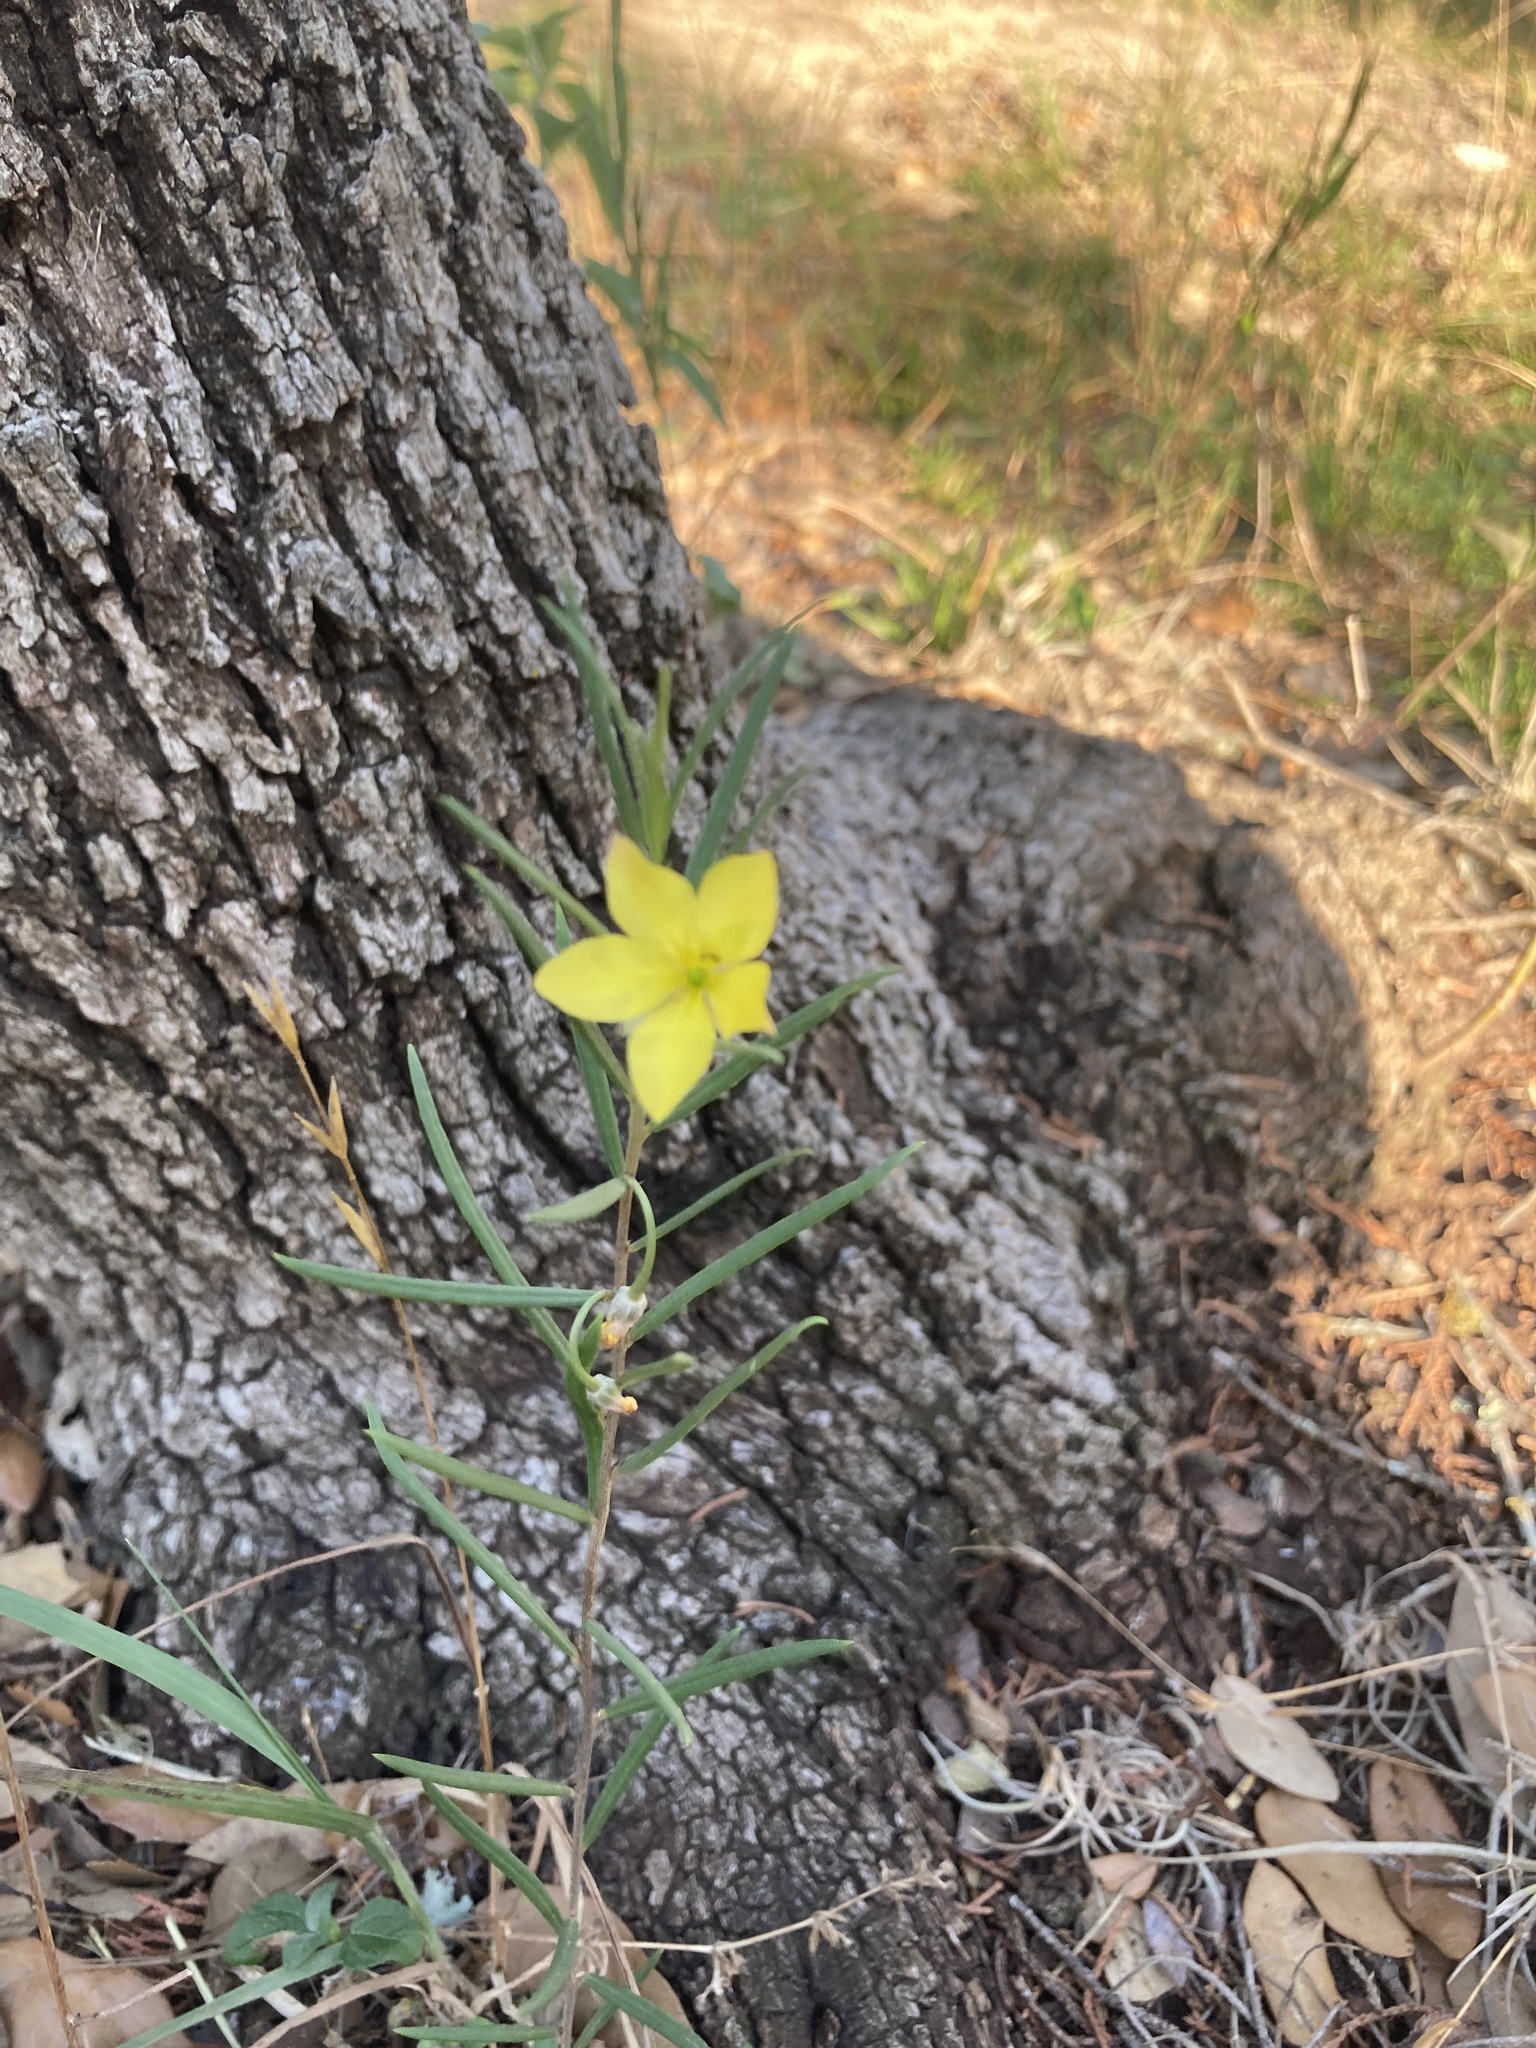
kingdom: Plantae
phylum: Tracheophyta
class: Magnoliopsida
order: Caryophyllales
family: Talinaceae
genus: Talinum
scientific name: Talinum polygaloides
